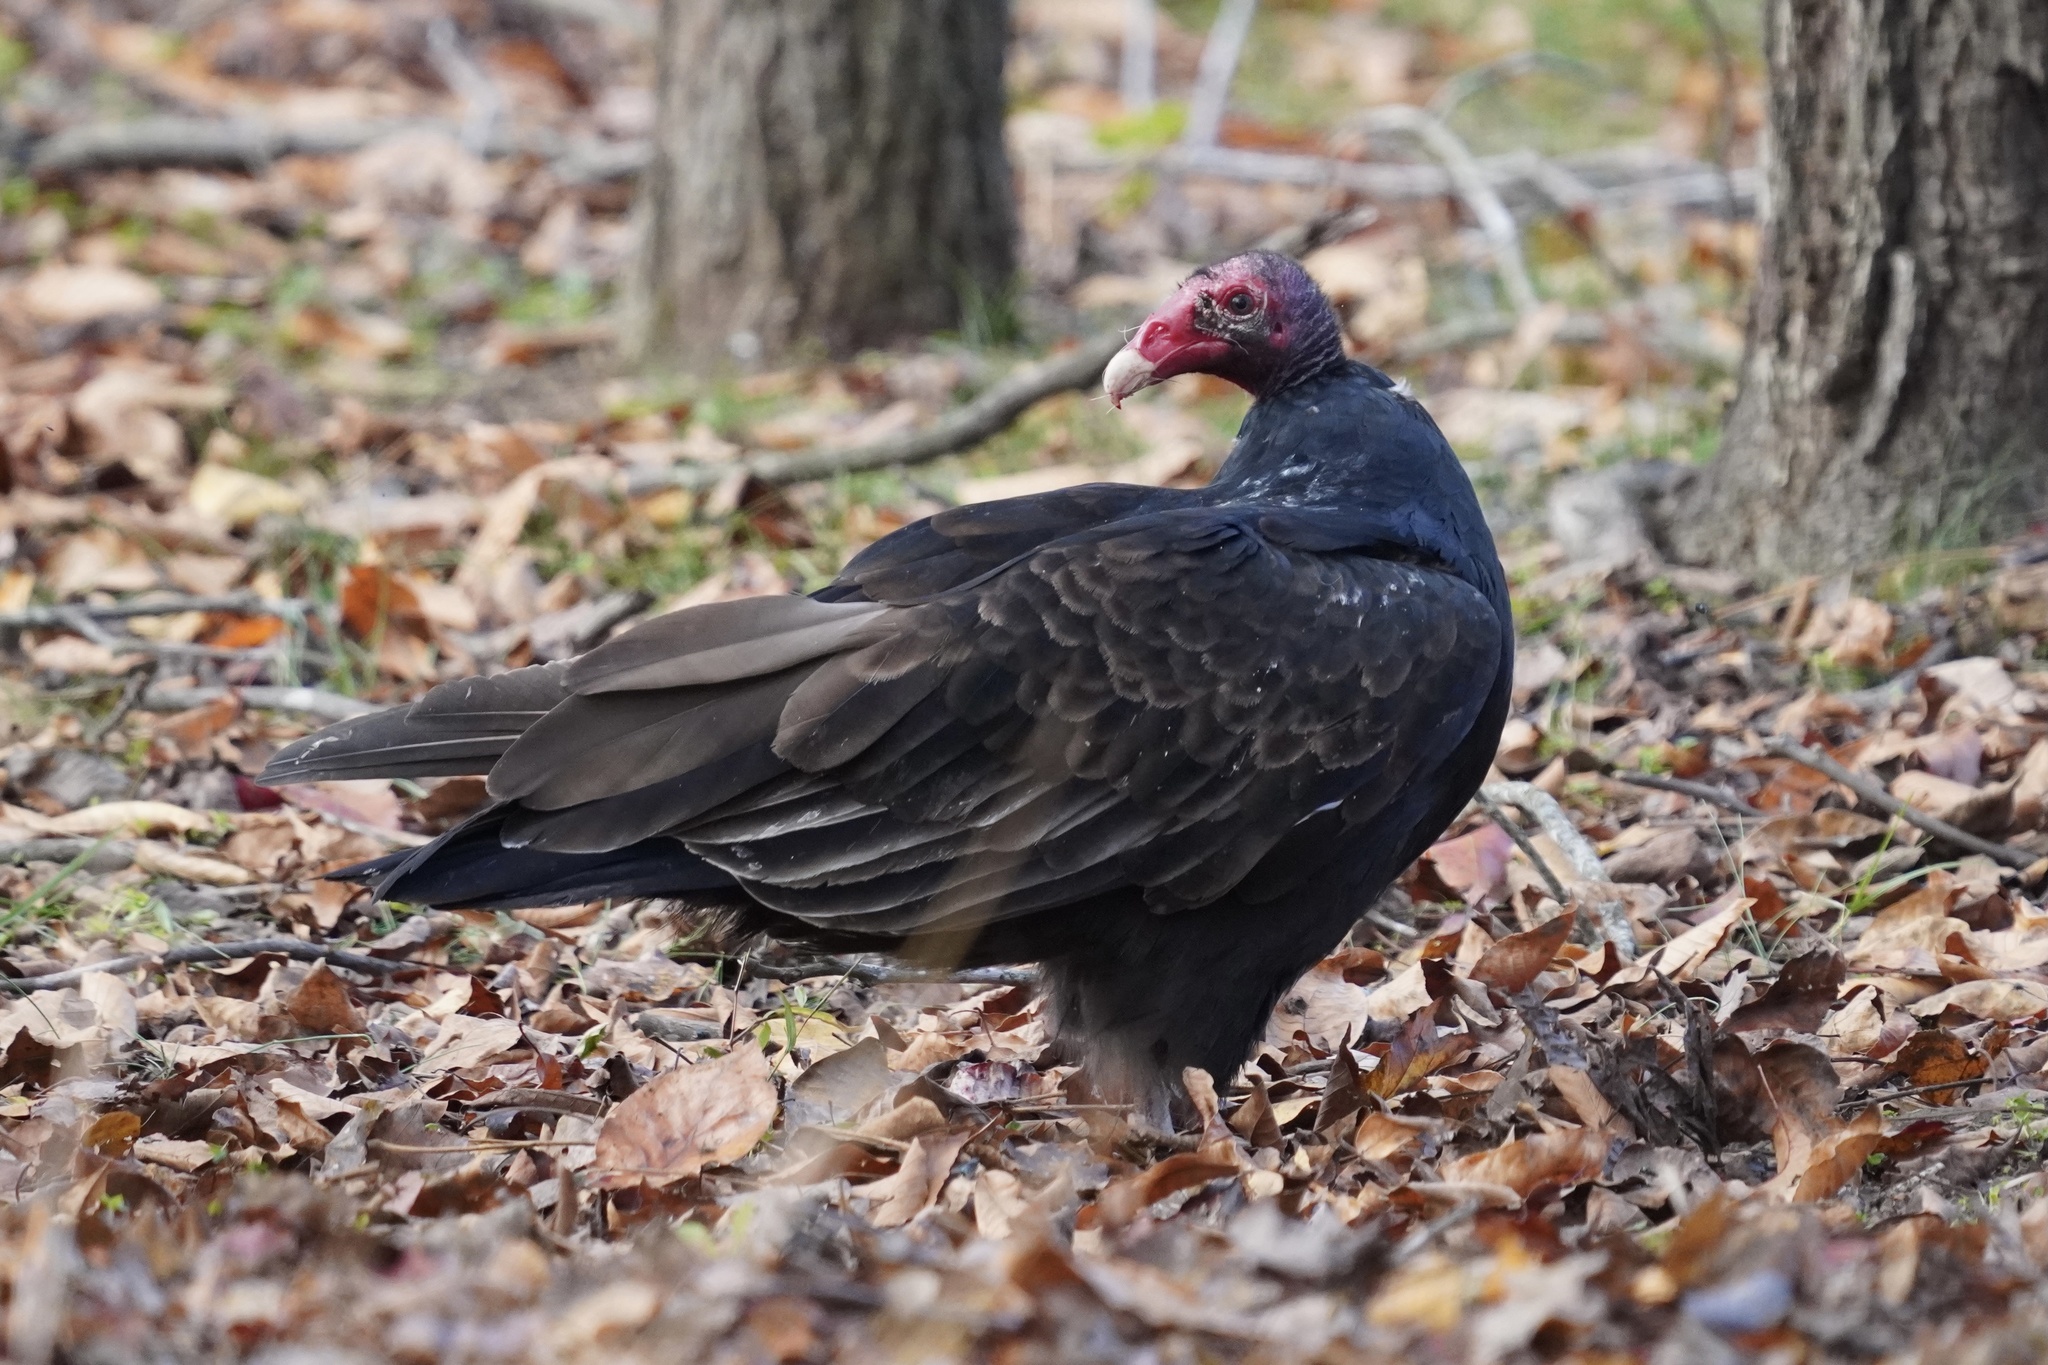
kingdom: Animalia
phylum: Chordata
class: Aves
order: Accipitriformes
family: Cathartidae
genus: Cathartes
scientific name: Cathartes aura
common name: Turkey vulture
